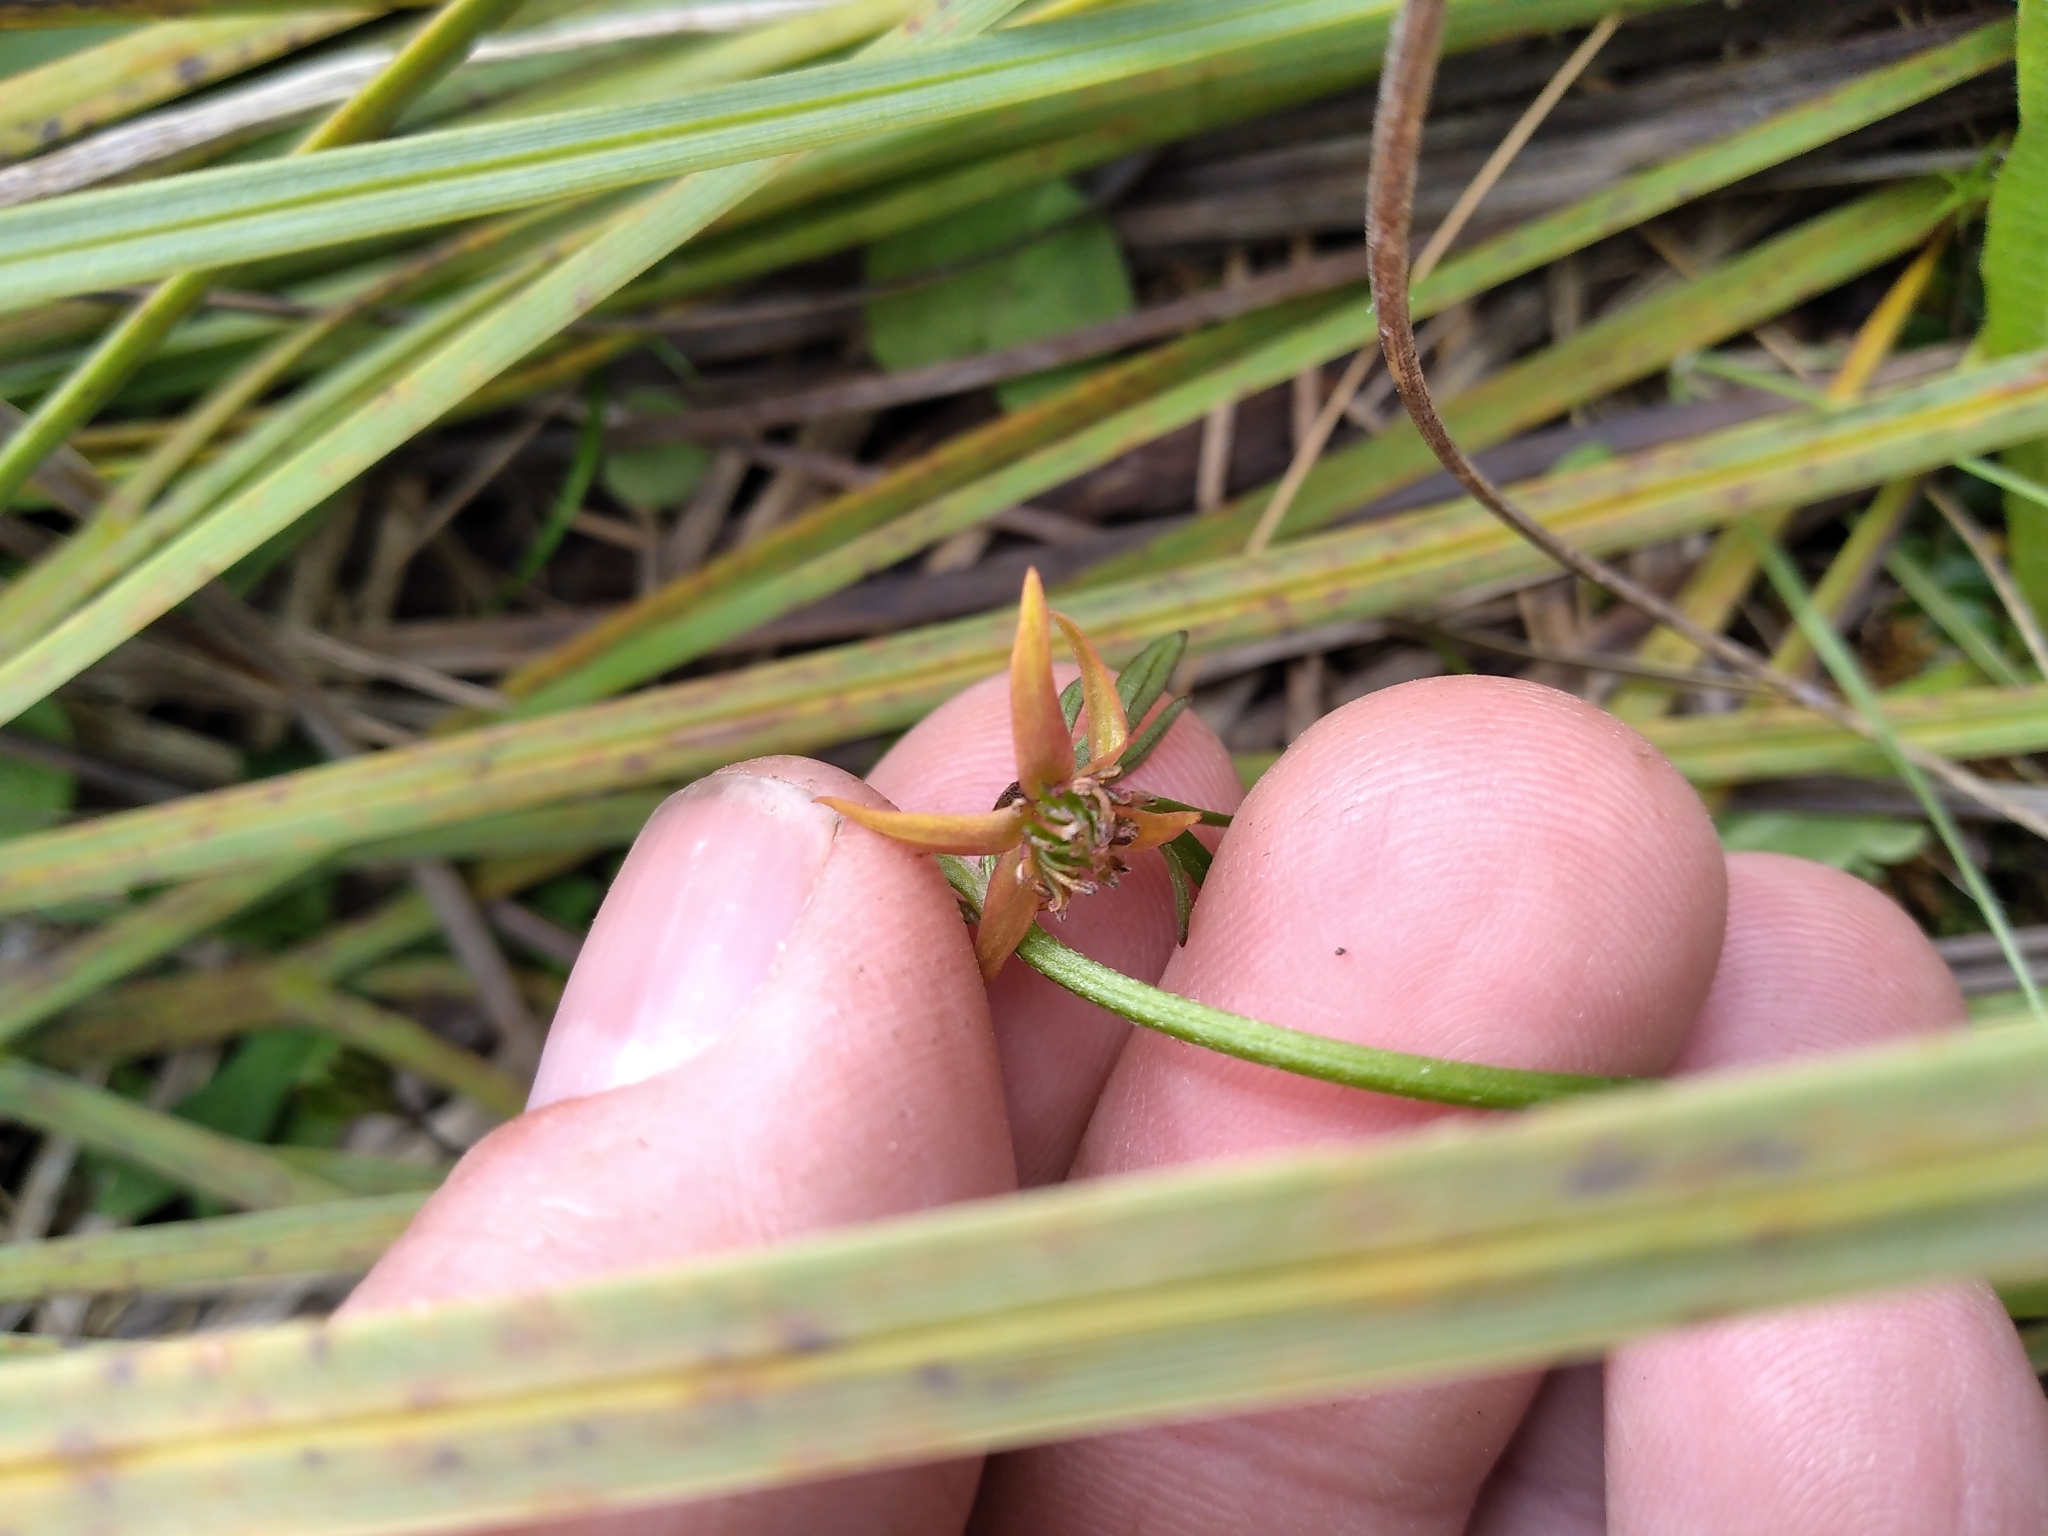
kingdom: Plantae
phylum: Tracheophyta
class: Magnoliopsida
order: Ranunculales
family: Ranunculaceae
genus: Anemonastrum
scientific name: Anemonastrum tenuicaule
